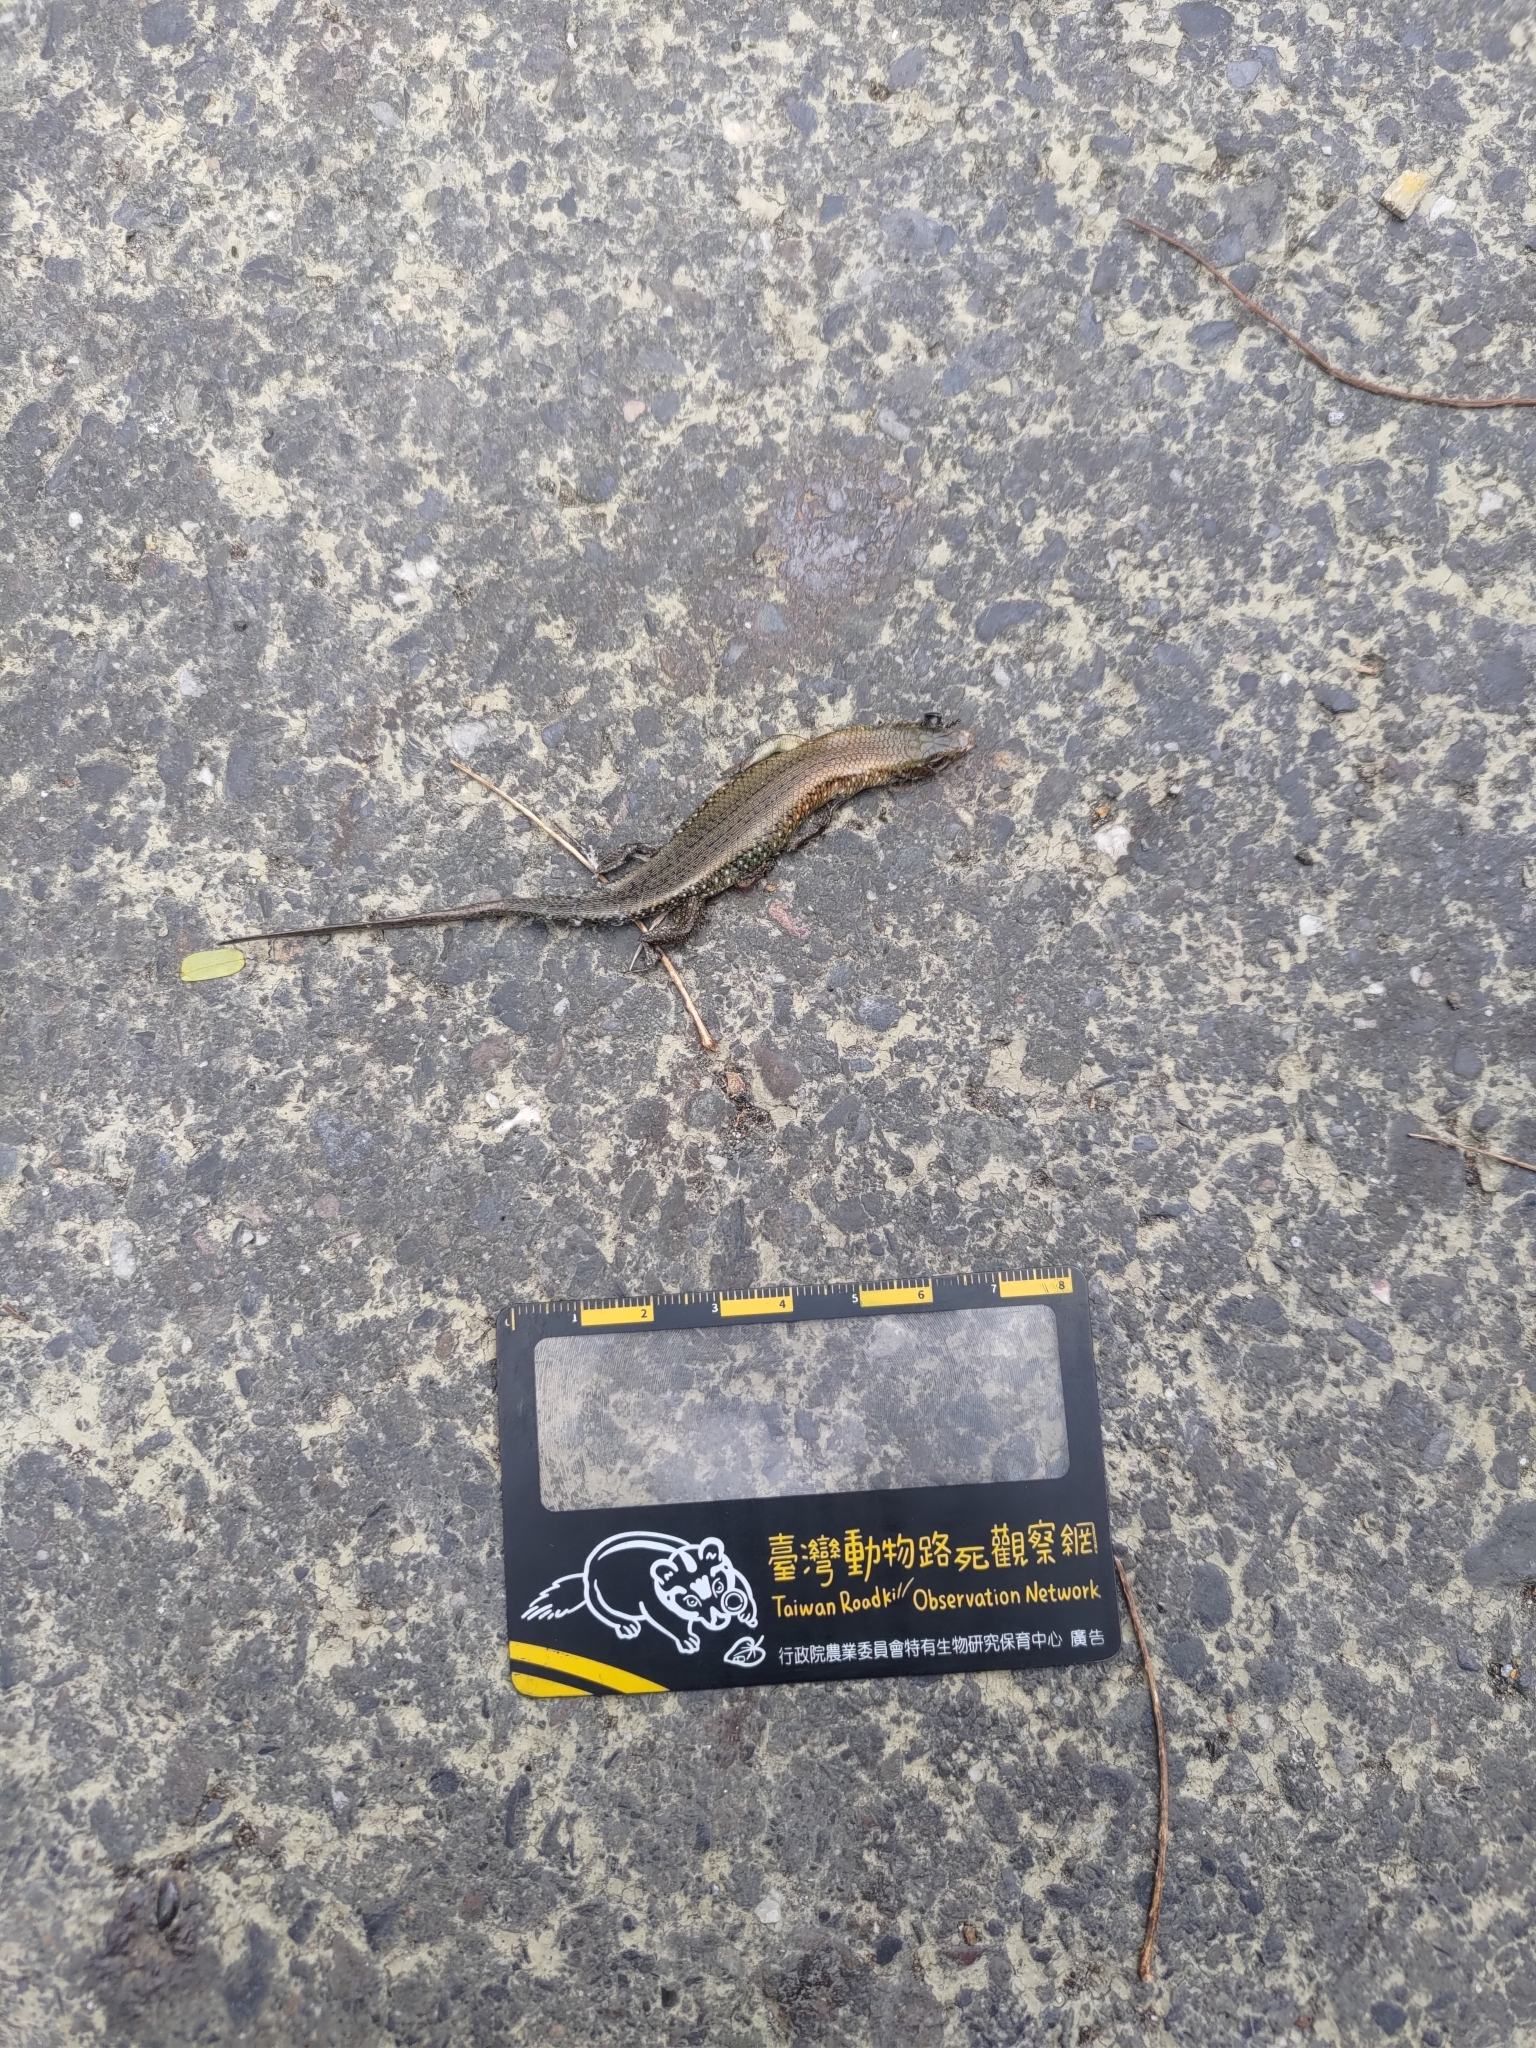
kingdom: Animalia
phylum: Chordata
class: Squamata
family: Scincidae
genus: Eutropis
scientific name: Eutropis multifasciata
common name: Common mabuya
